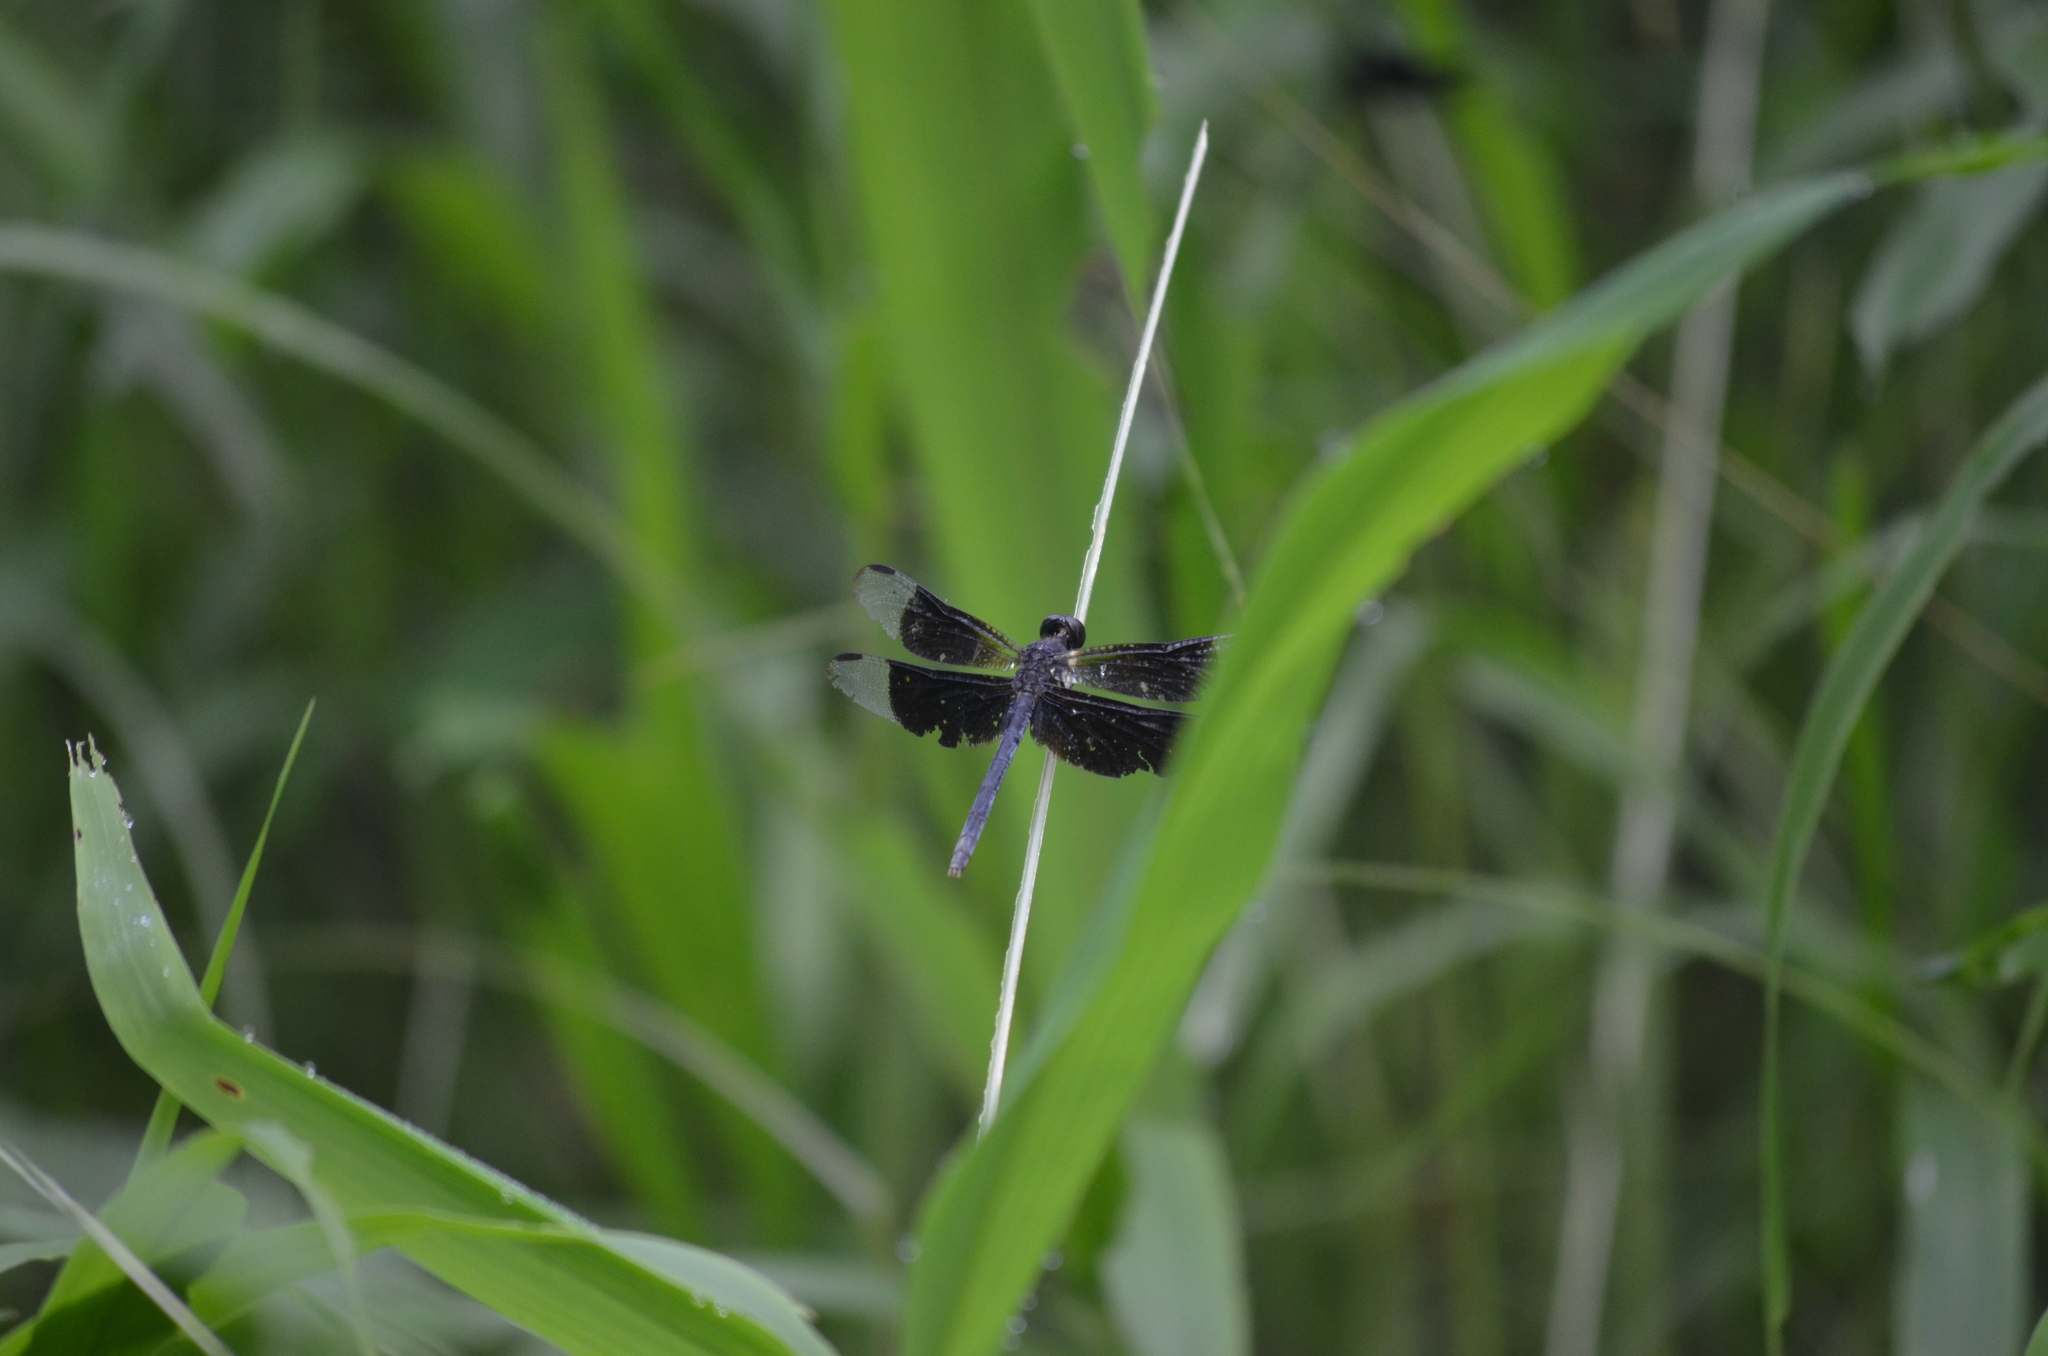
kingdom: Animalia
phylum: Arthropoda
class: Insecta
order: Odonata
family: Libellulidae
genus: Erythrodiplax
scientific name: Erythrodiplax funerea
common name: Black-winged dragonlet
